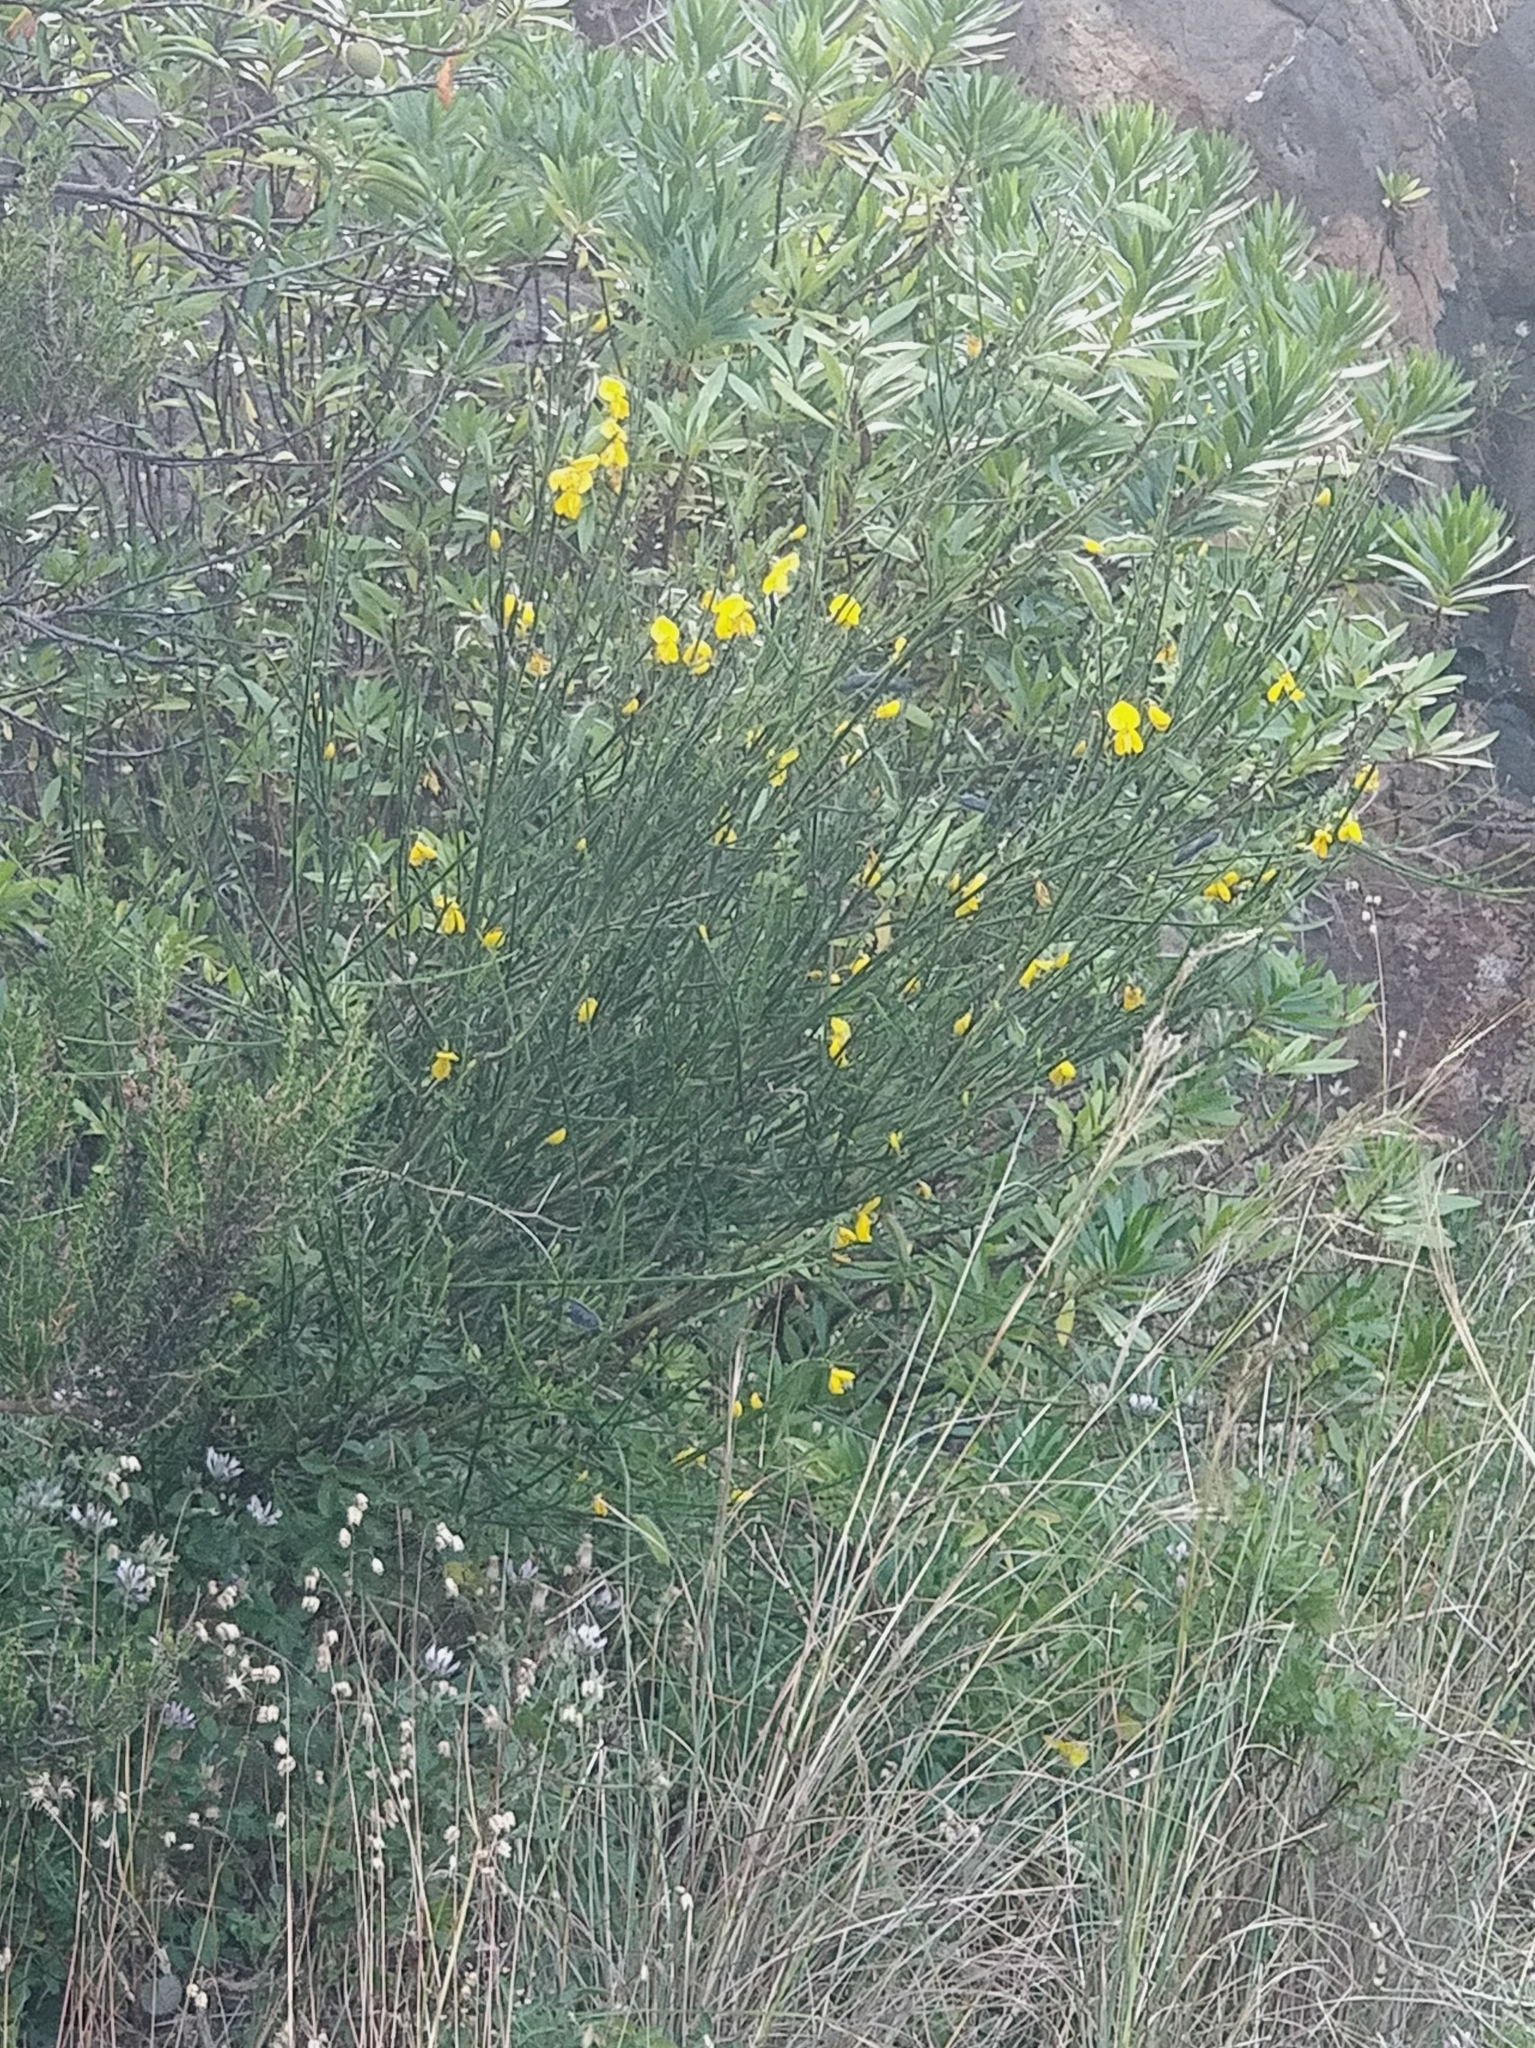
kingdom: Plantae
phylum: Tracheophyta
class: Magnoliopsida
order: Fabales
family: Fabaceae
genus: Cytisus
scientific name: Cytisus scoparius
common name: Scotch broom
